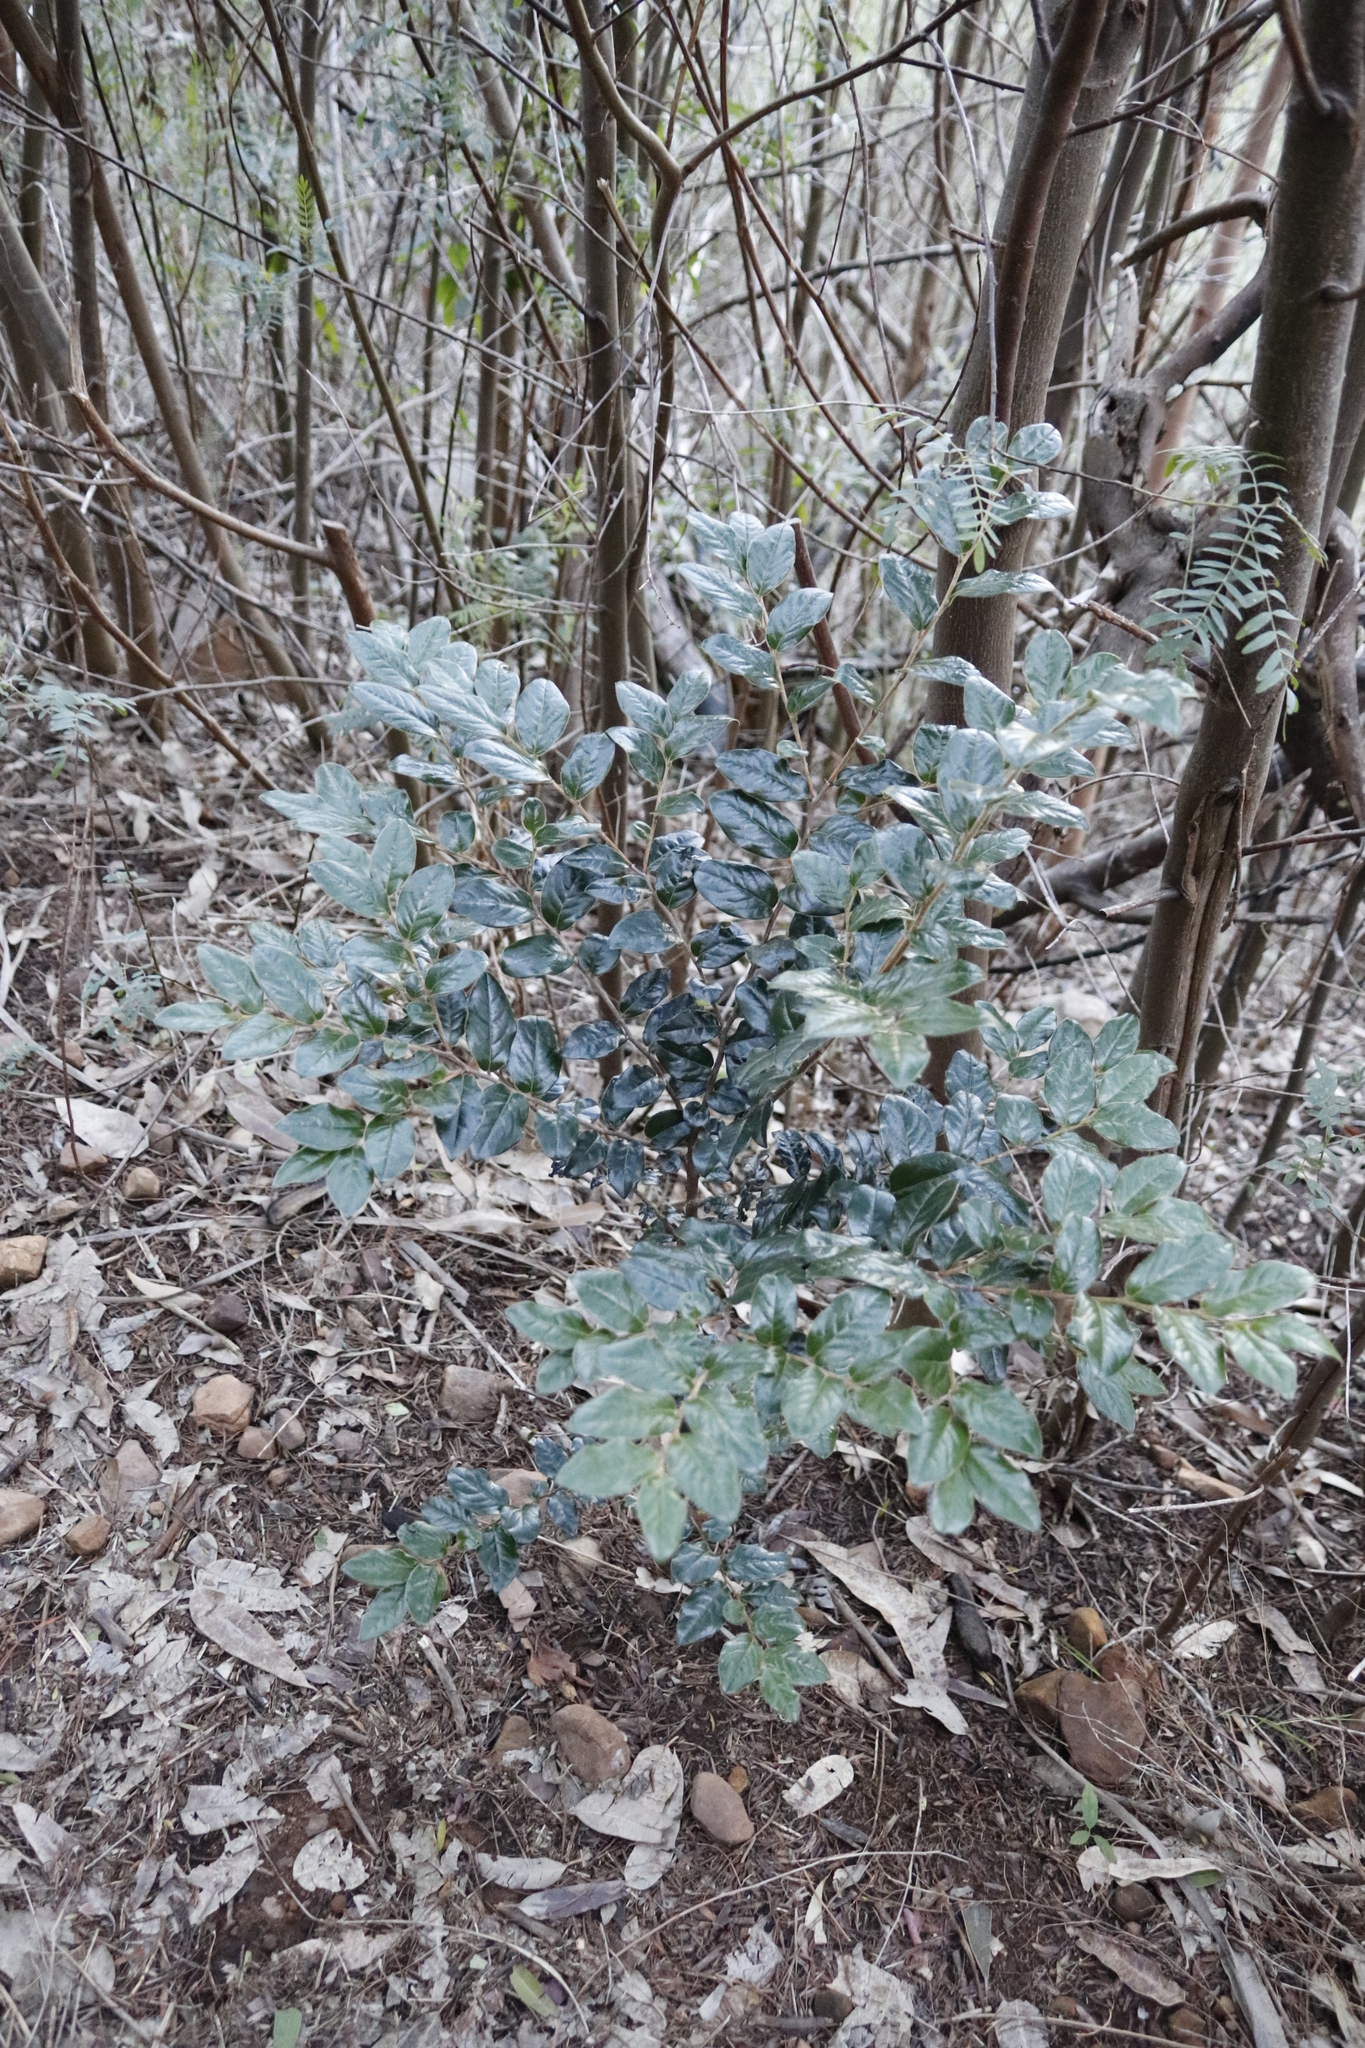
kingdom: Plantae
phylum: Tracheophyta
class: Magnoliopsida
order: Ericales
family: Ebenaceae
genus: Diospyros
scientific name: Diospyros whyteana
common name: Bladder-nut
